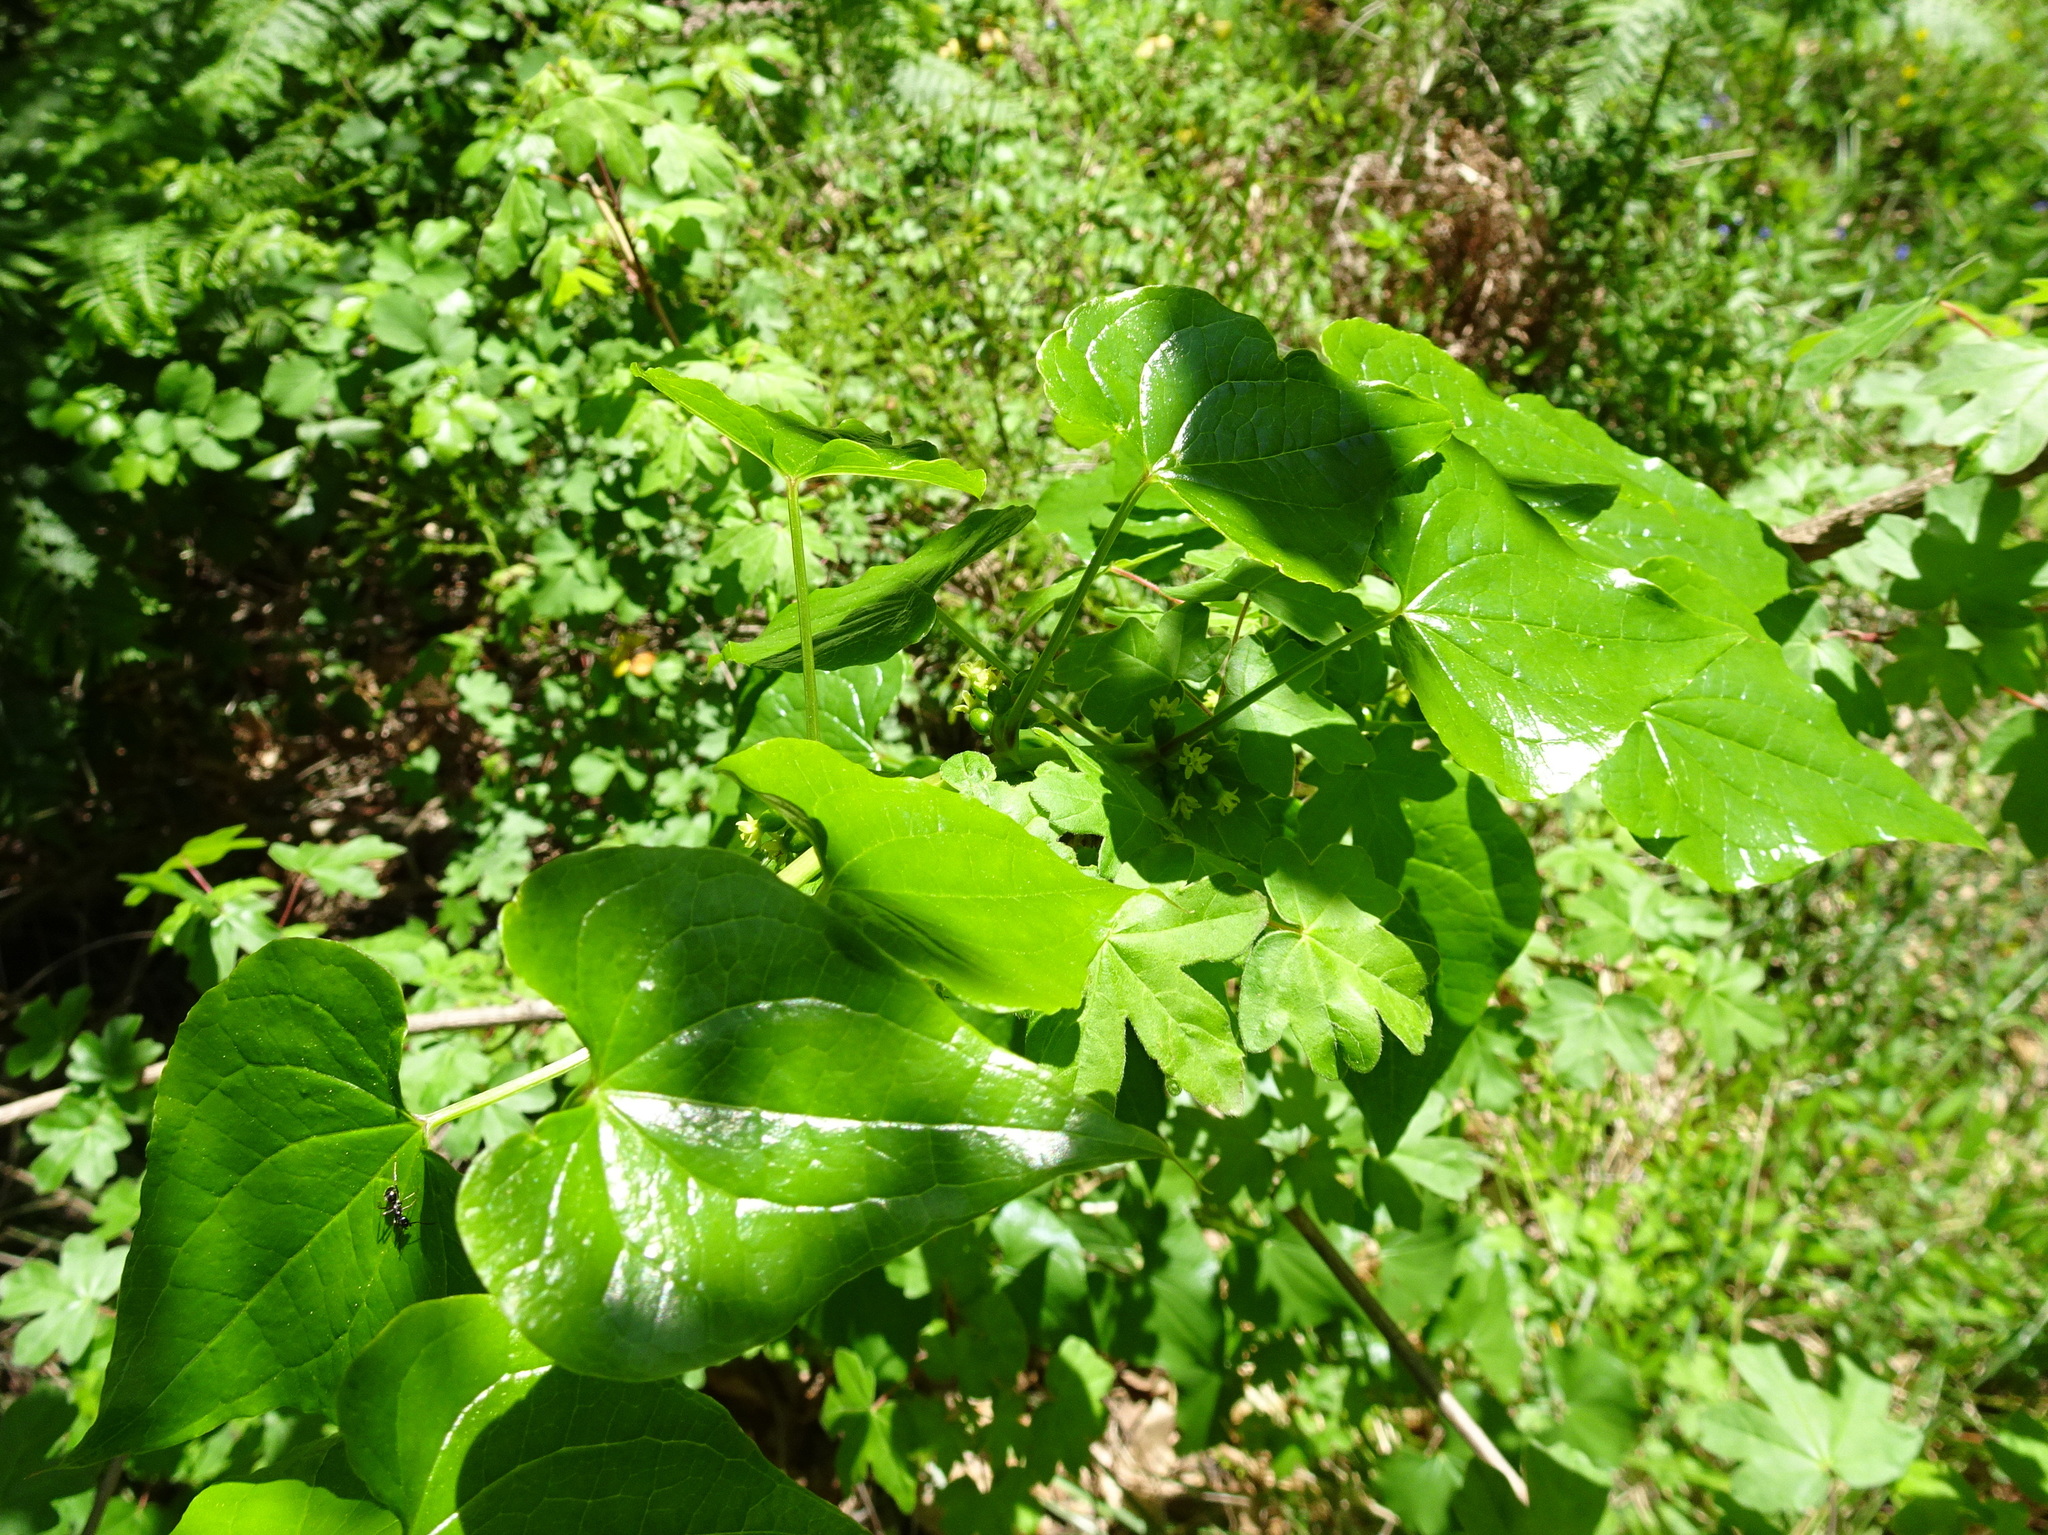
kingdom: Plantae
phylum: Tracheophyta
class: Liliopsida
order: Dioscoreales
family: Dioscoreaceae
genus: Dioscorea
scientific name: Dioscorea communis
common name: Black-bindweed
